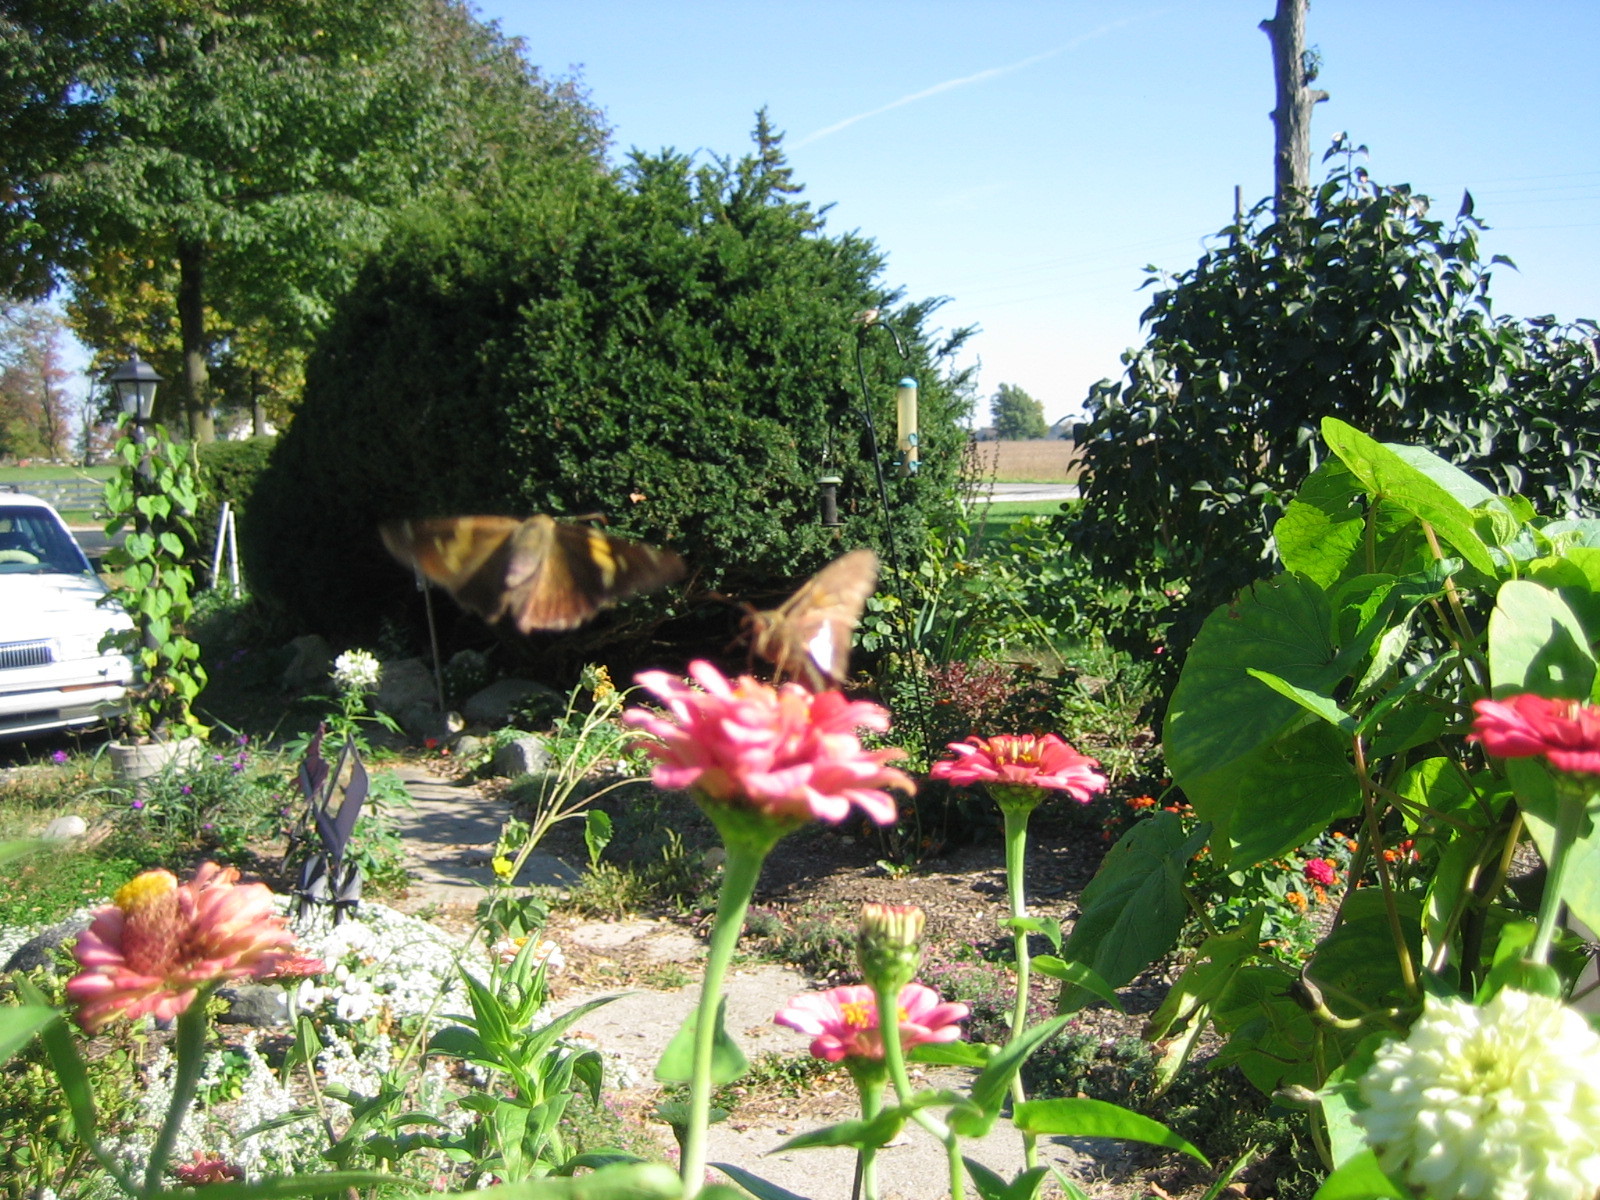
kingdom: Animalia
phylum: Arthropoda
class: Insecta
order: Lepidoptera
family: Hesperiidae
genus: Epargyreus
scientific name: Epargyreus clarus
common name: Silver-spotted skipper
